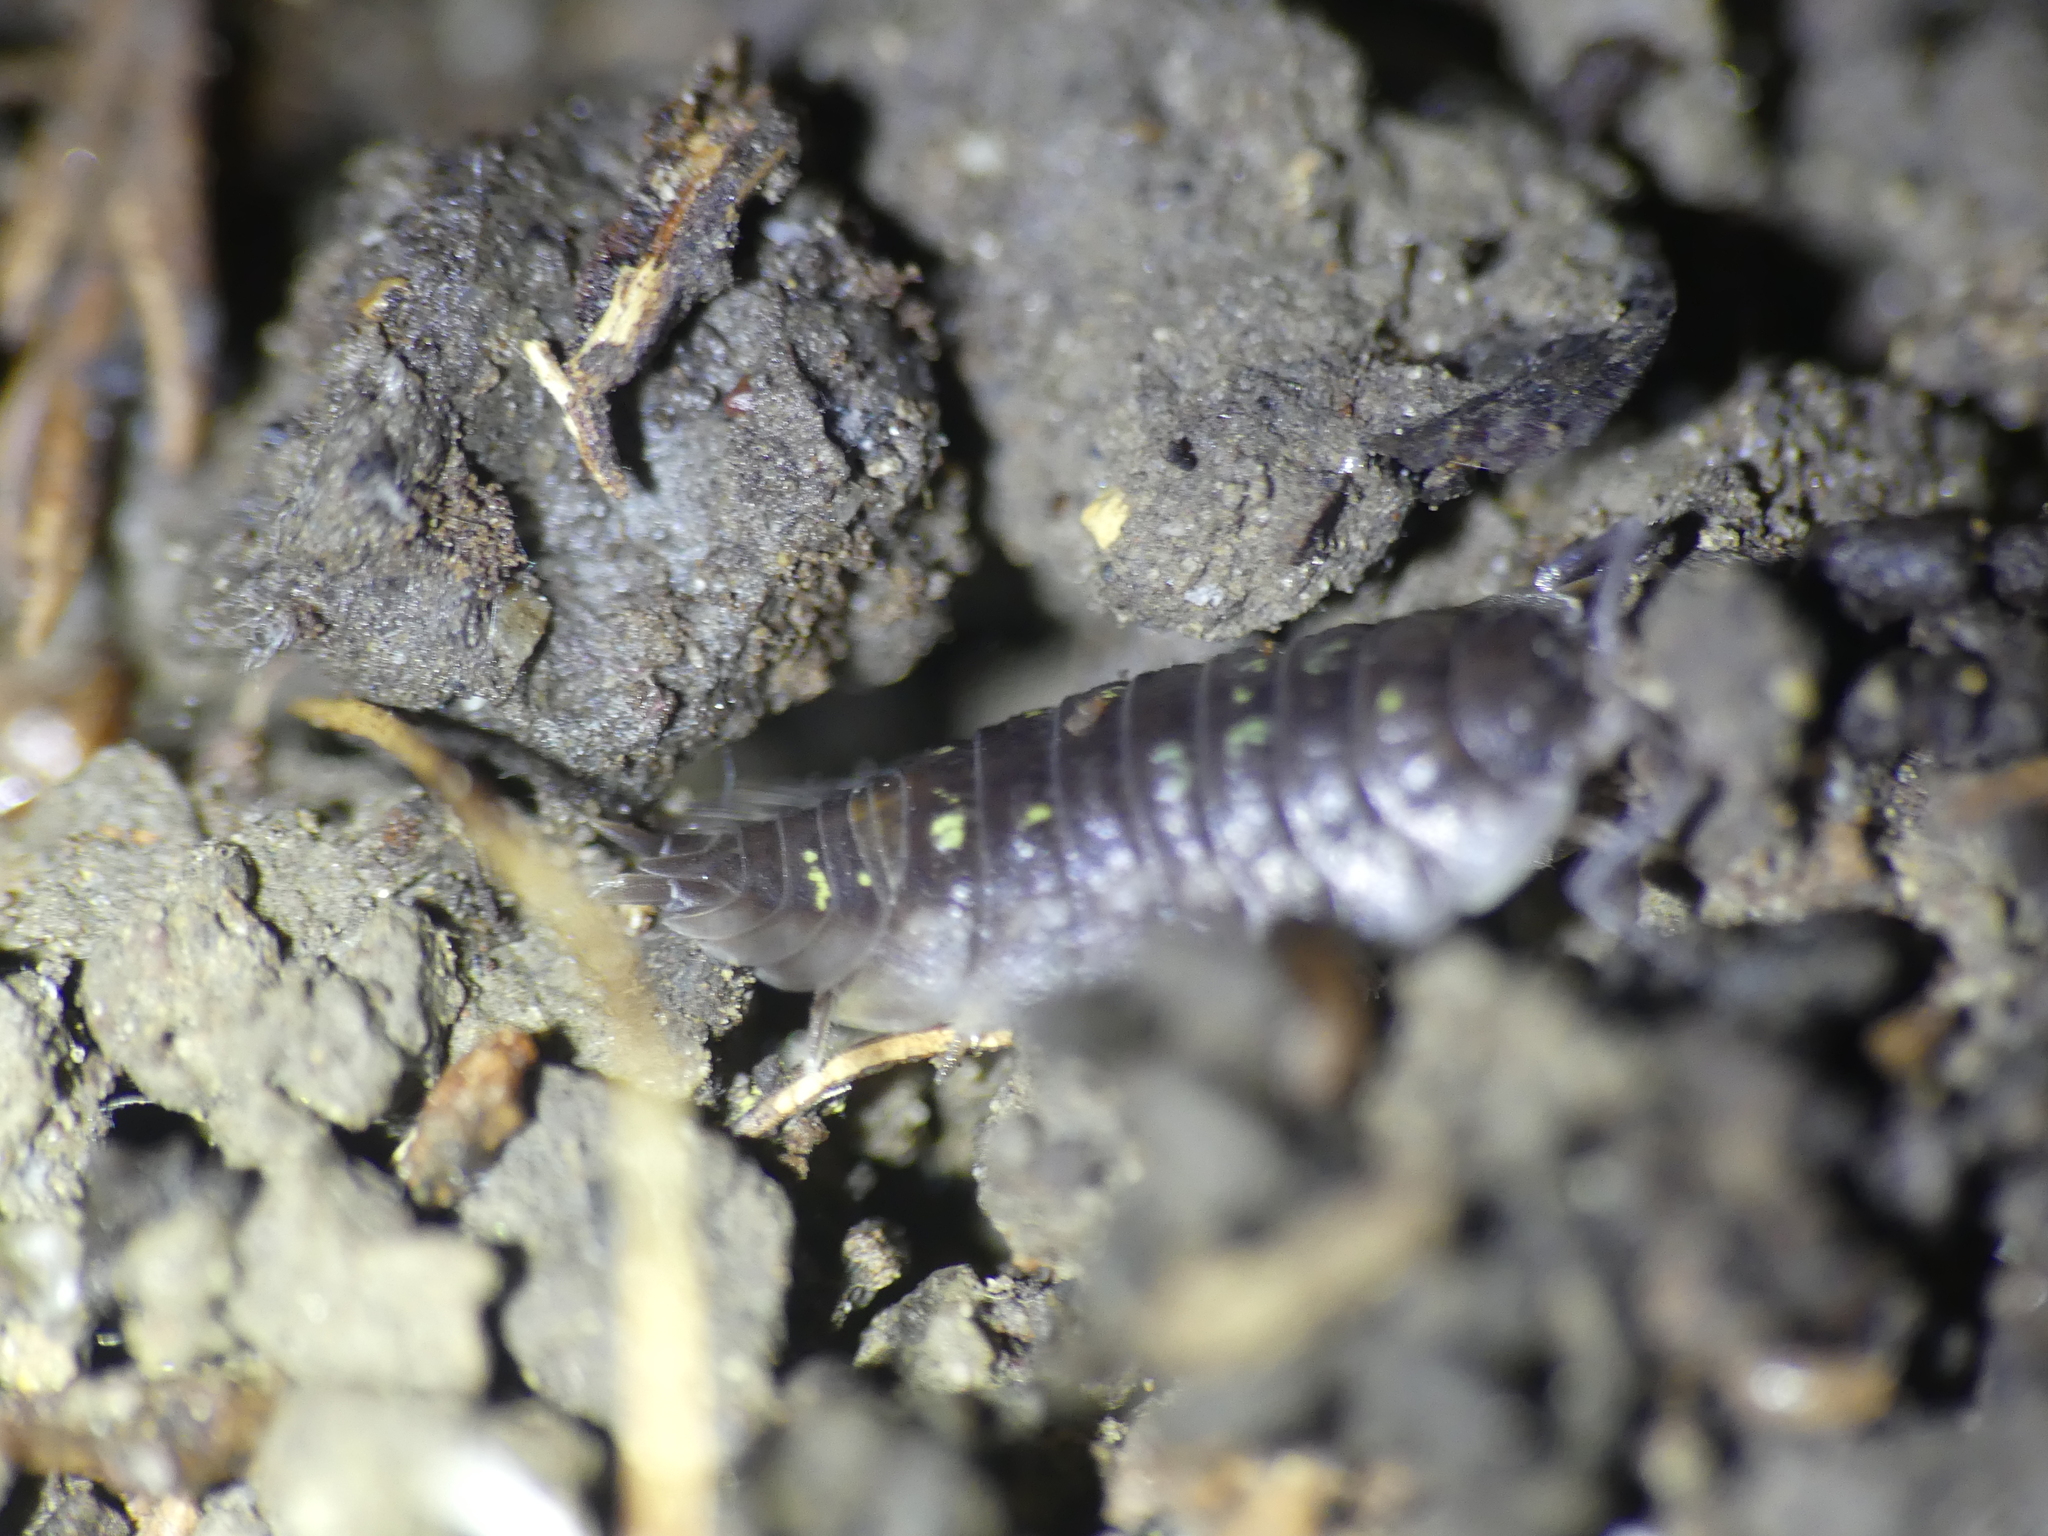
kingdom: Animalia
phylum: Arthropoda
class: Malacostraca
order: Isopoda
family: Oniscidae
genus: Oniscus
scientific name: Oniscus asellus
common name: Common shiny woodlouse
